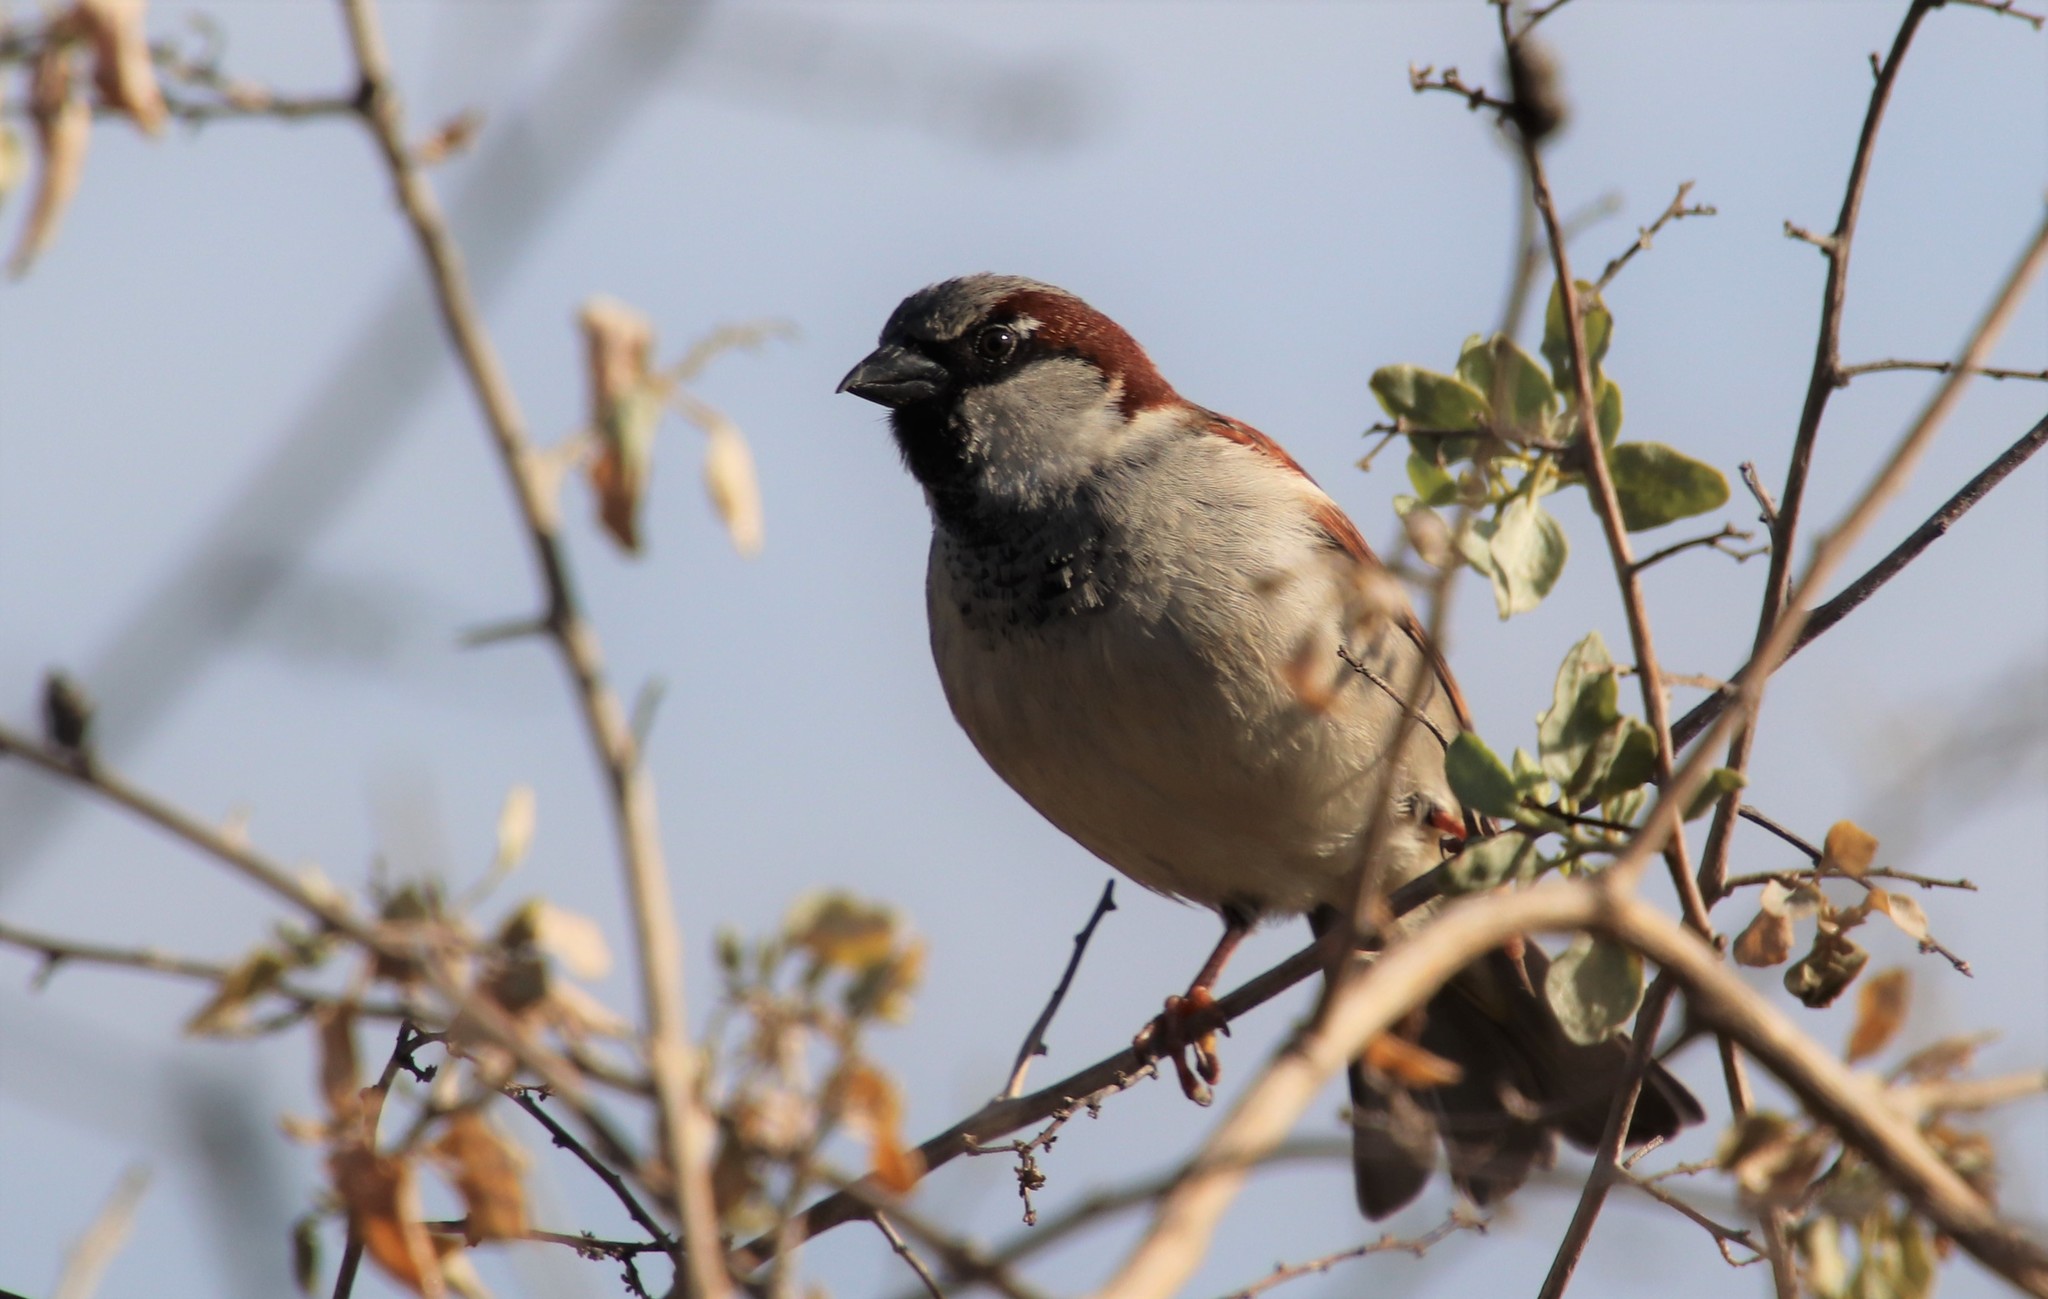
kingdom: Animalia
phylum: Chordata
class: Aves
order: Passeriformes
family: Passeridae
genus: Passer
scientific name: Passer domesticus
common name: House sparrow
